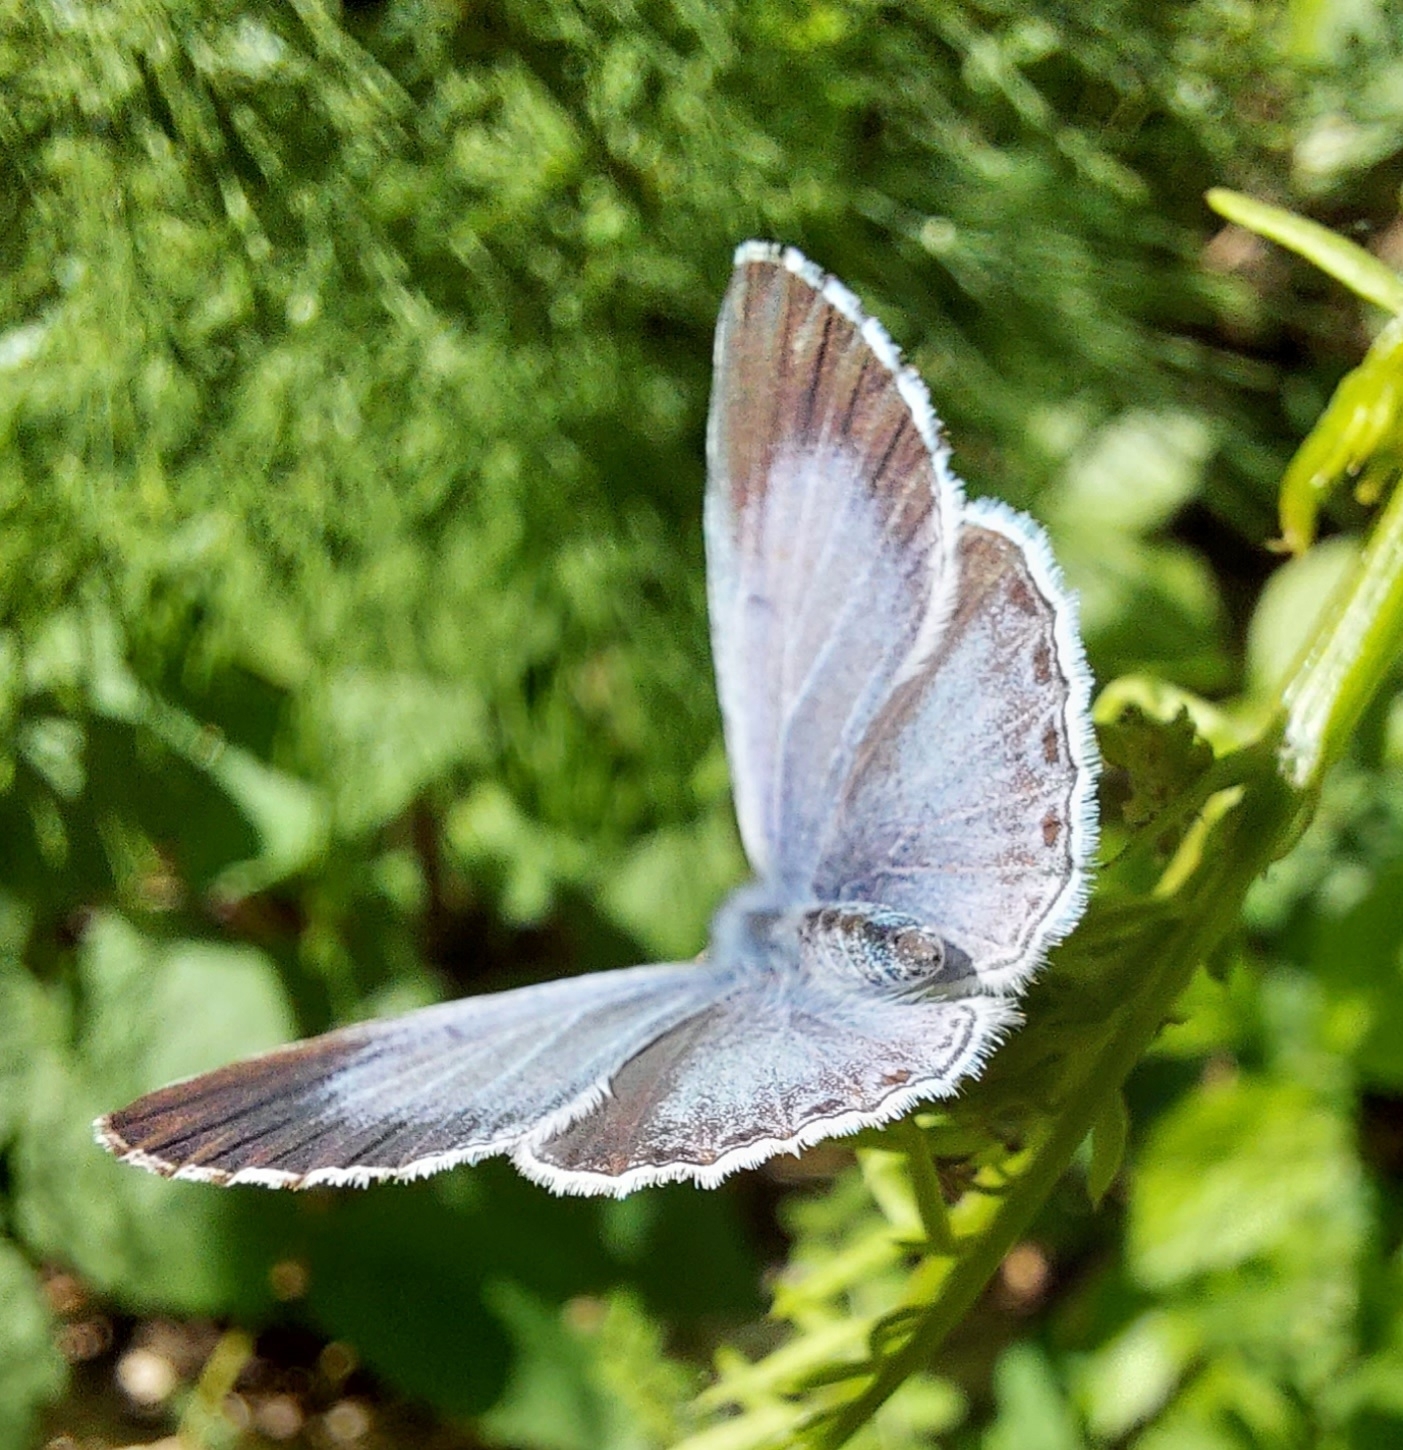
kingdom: Animalia
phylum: Arthropoda
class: Insecta
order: Lepidoptera
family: Lycaenidae
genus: Celastrina
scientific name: Celastrina argiolus
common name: Holly blue
